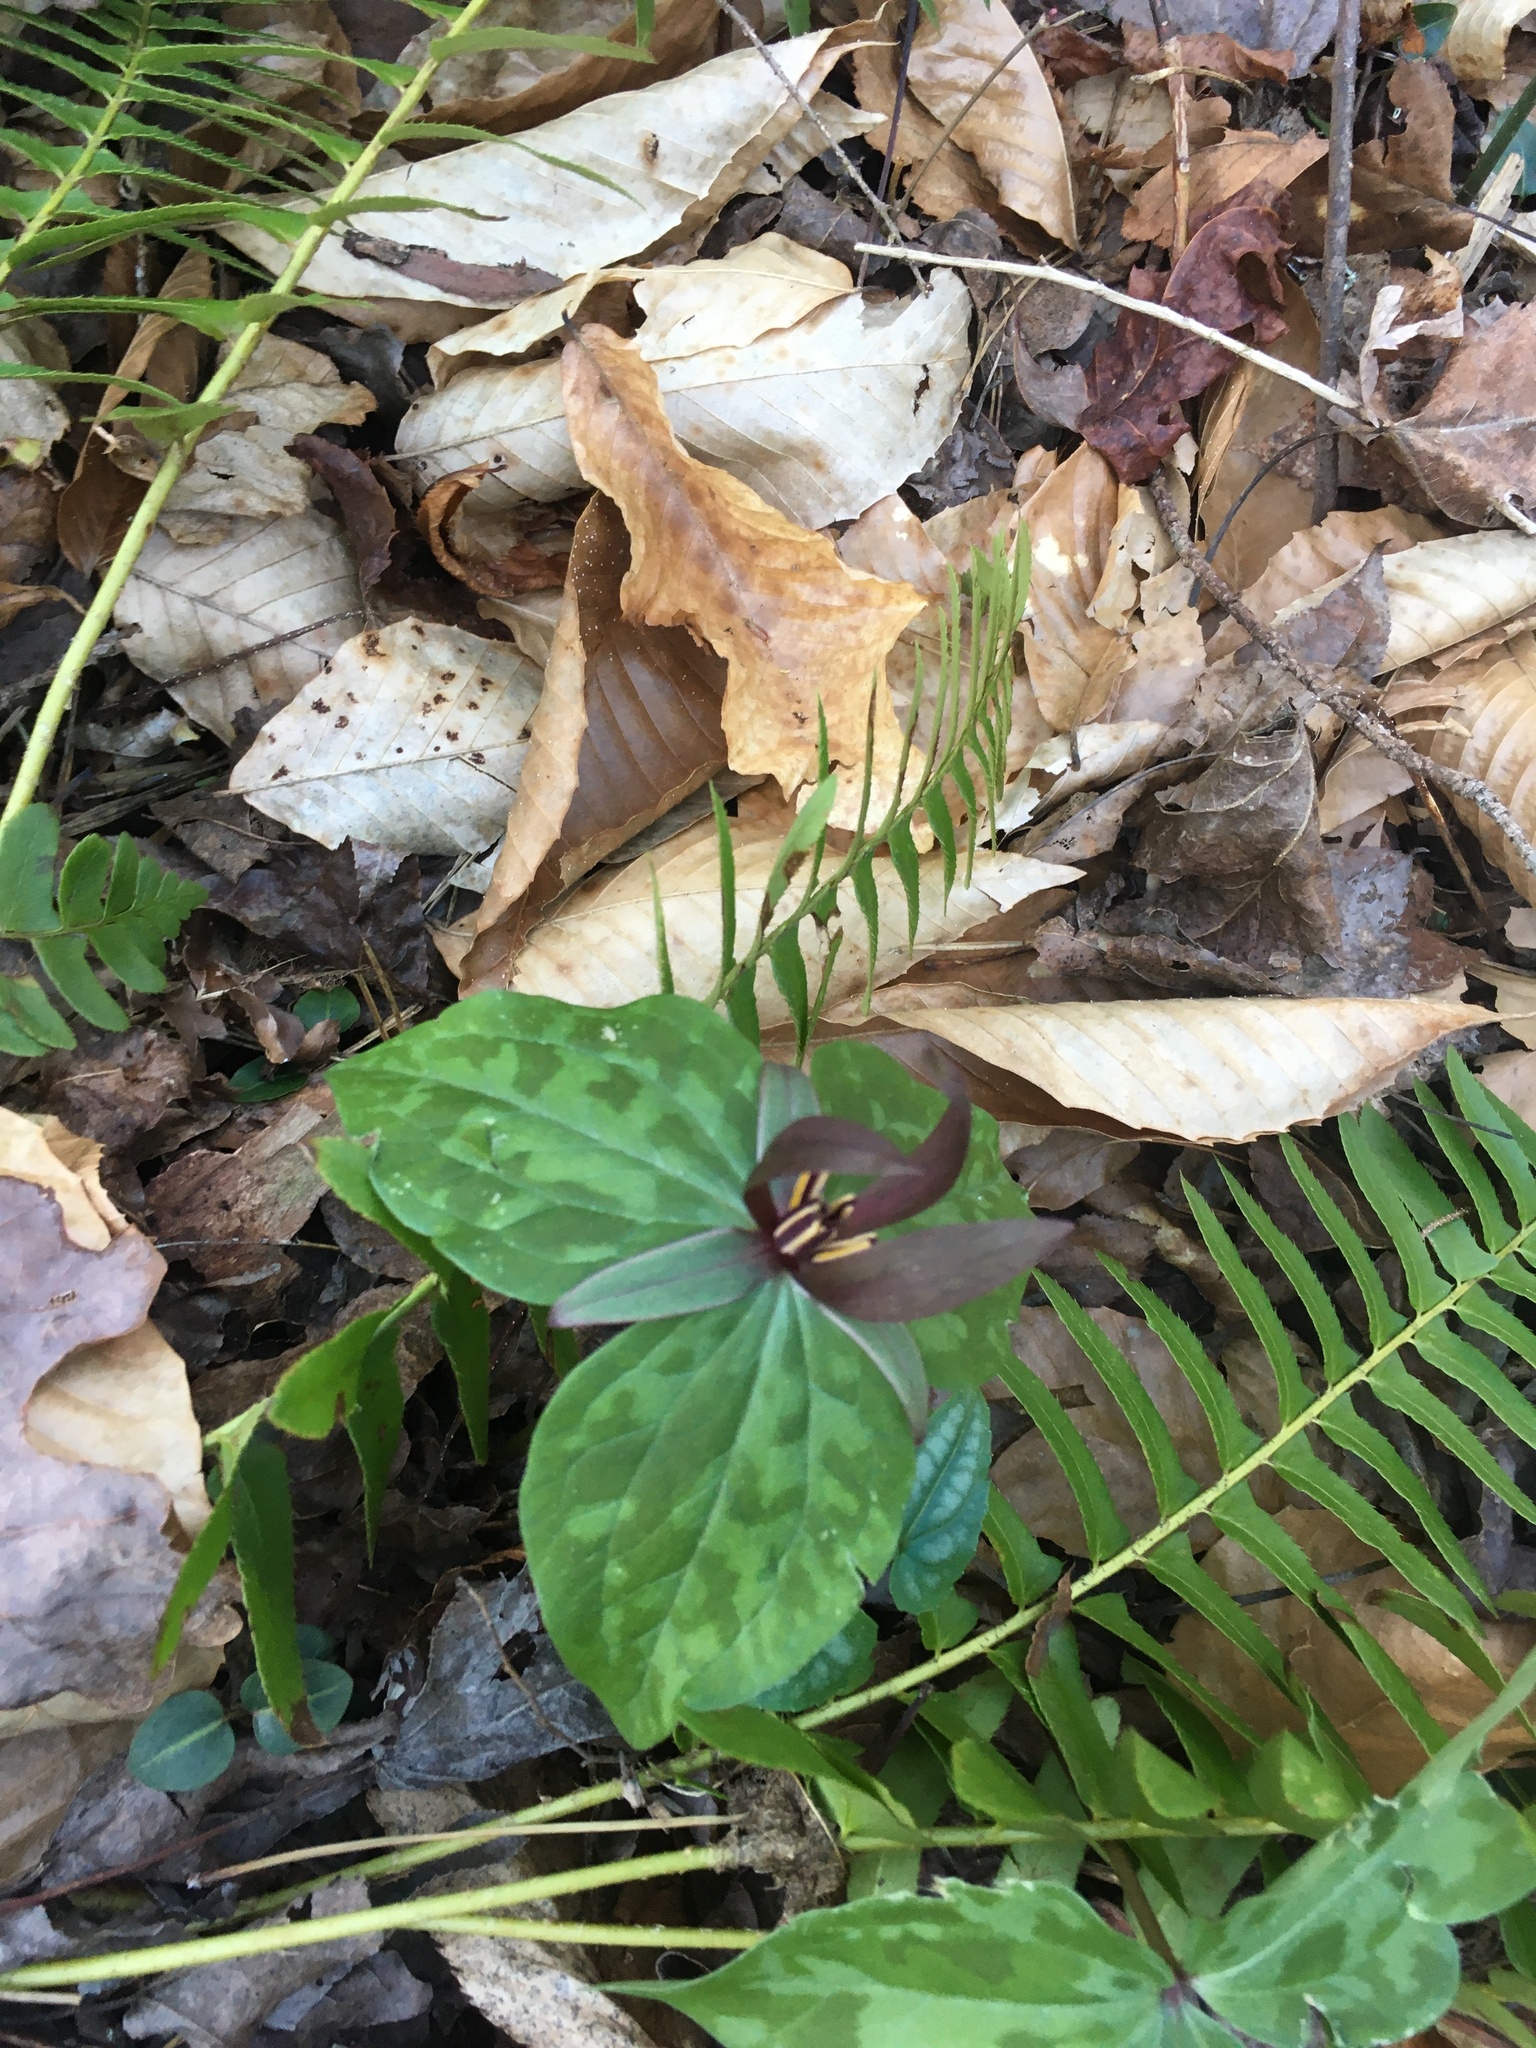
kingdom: Plantae
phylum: Tracheophyta
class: Liliopsida
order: Liliales
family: Melanthiaceae
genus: Trillium
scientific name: Trillium cuneatum
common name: Cuneate trillium
